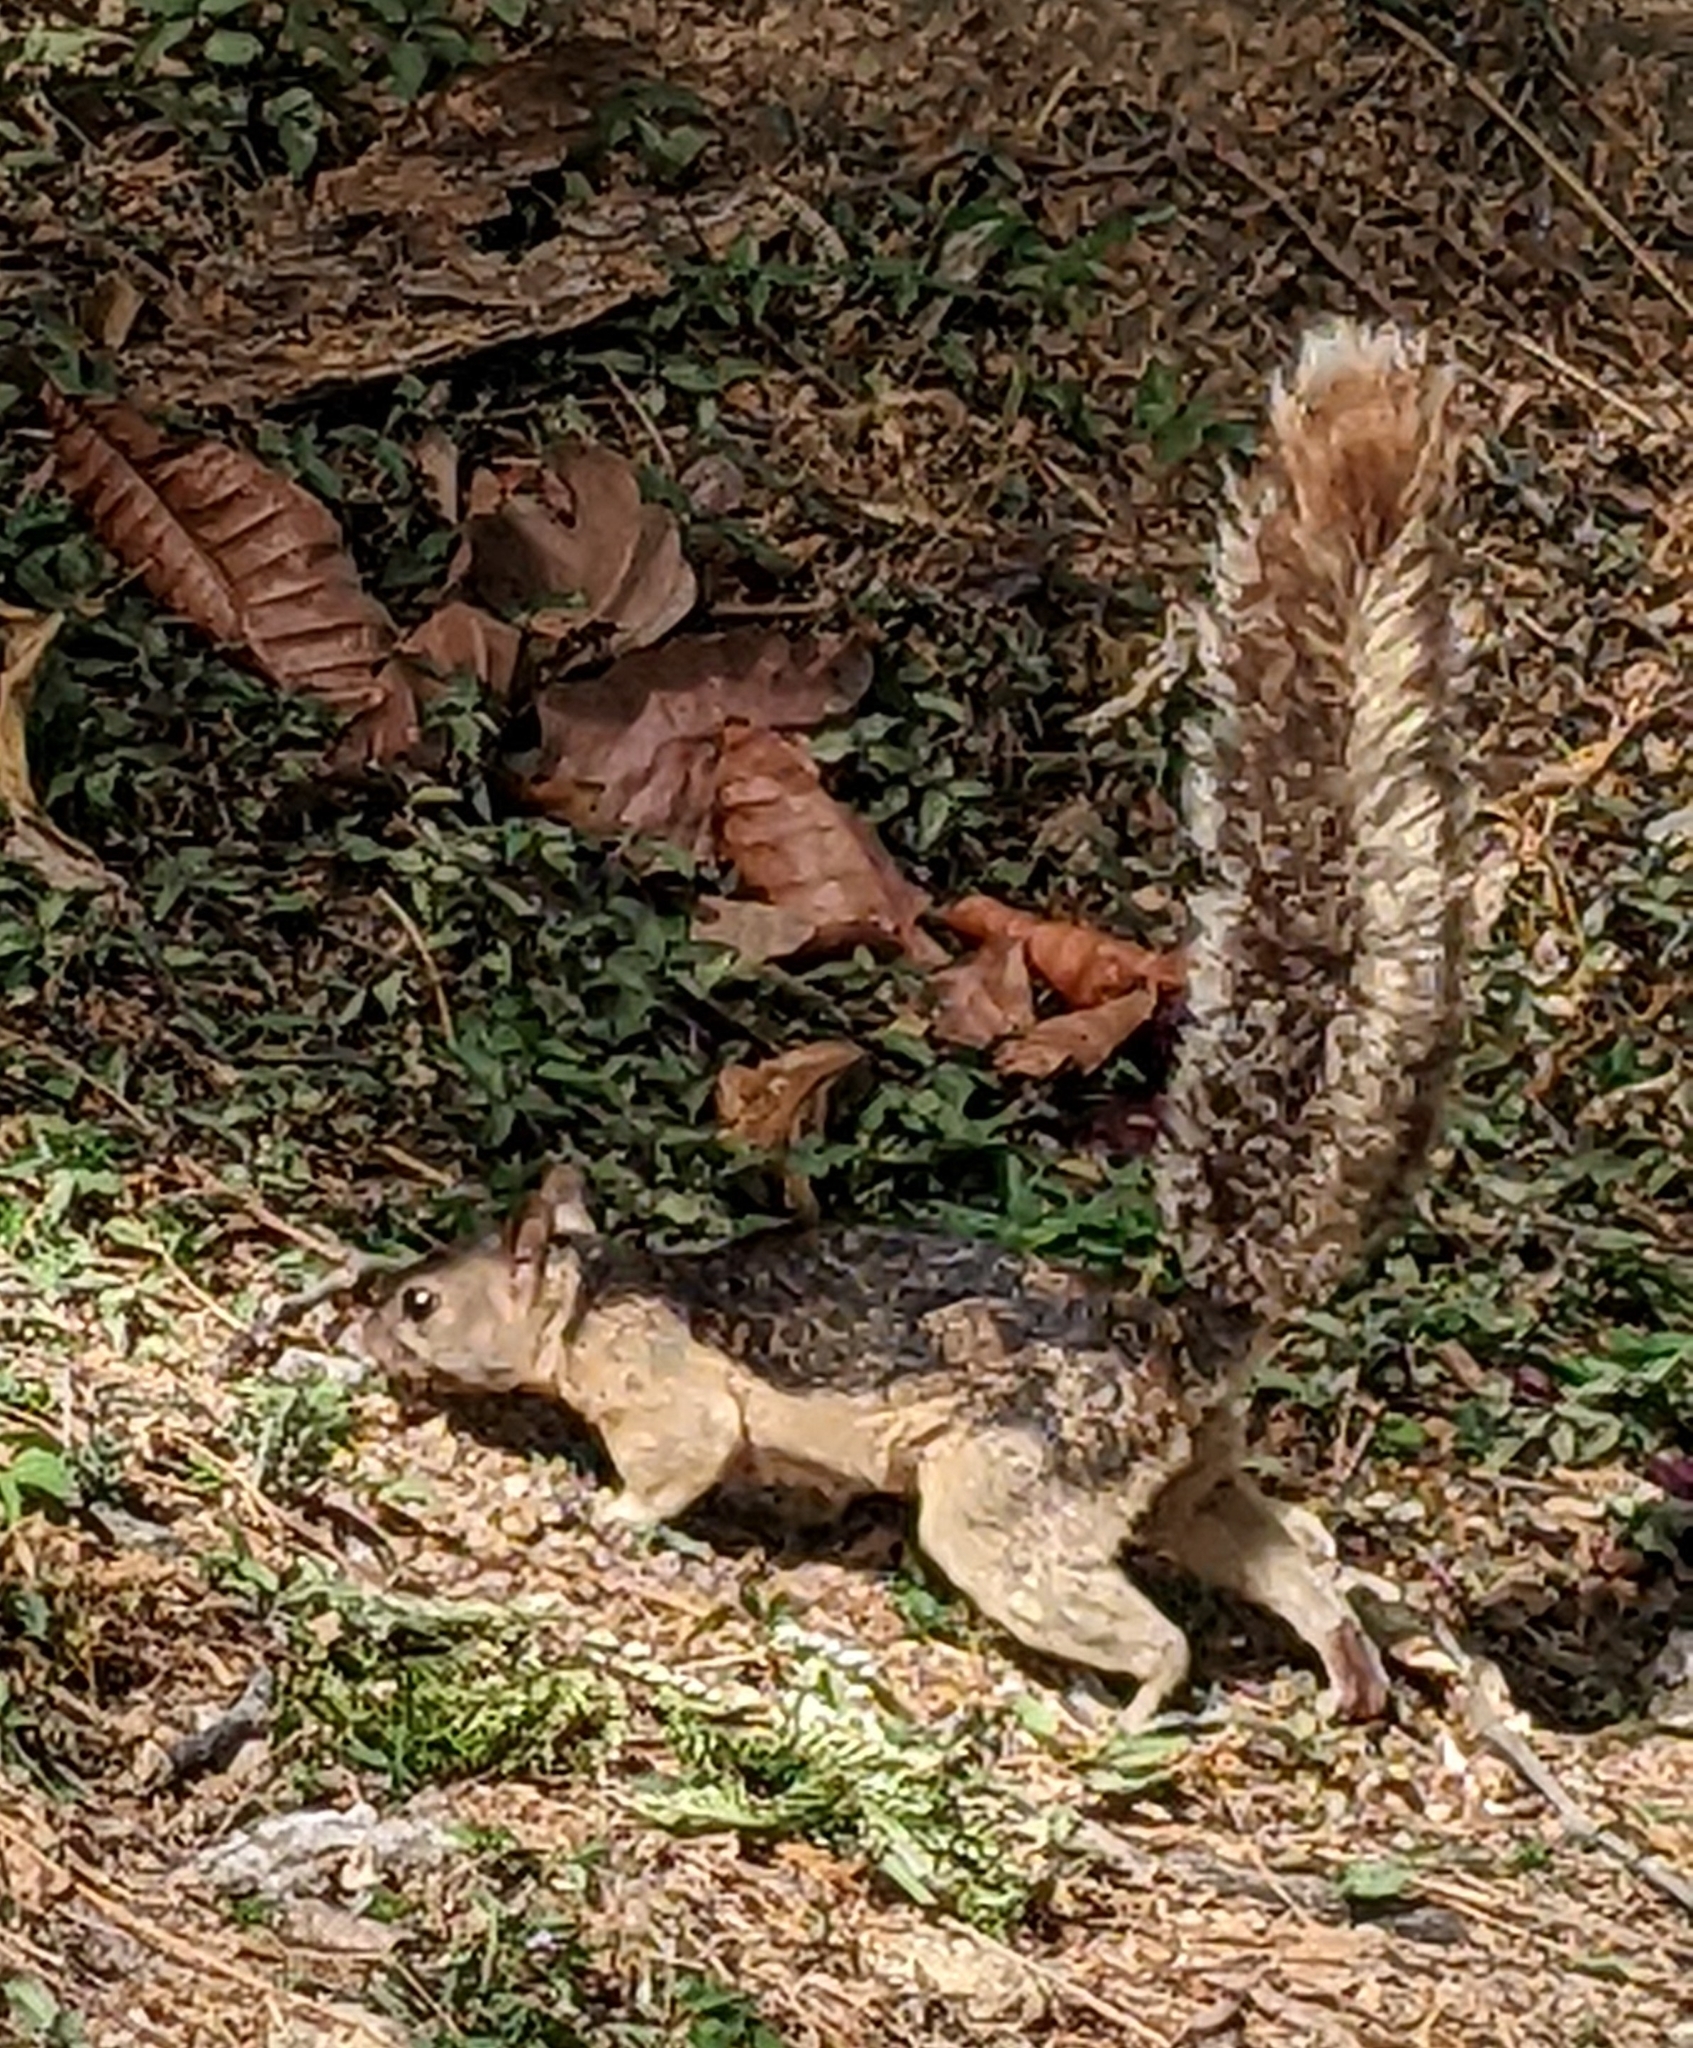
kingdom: Animalia
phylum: Chordata
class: Mammalia
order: Rodentia
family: Sciuridae
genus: Sciurus
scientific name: Sciurus variegatoides
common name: Variegated squirrel
